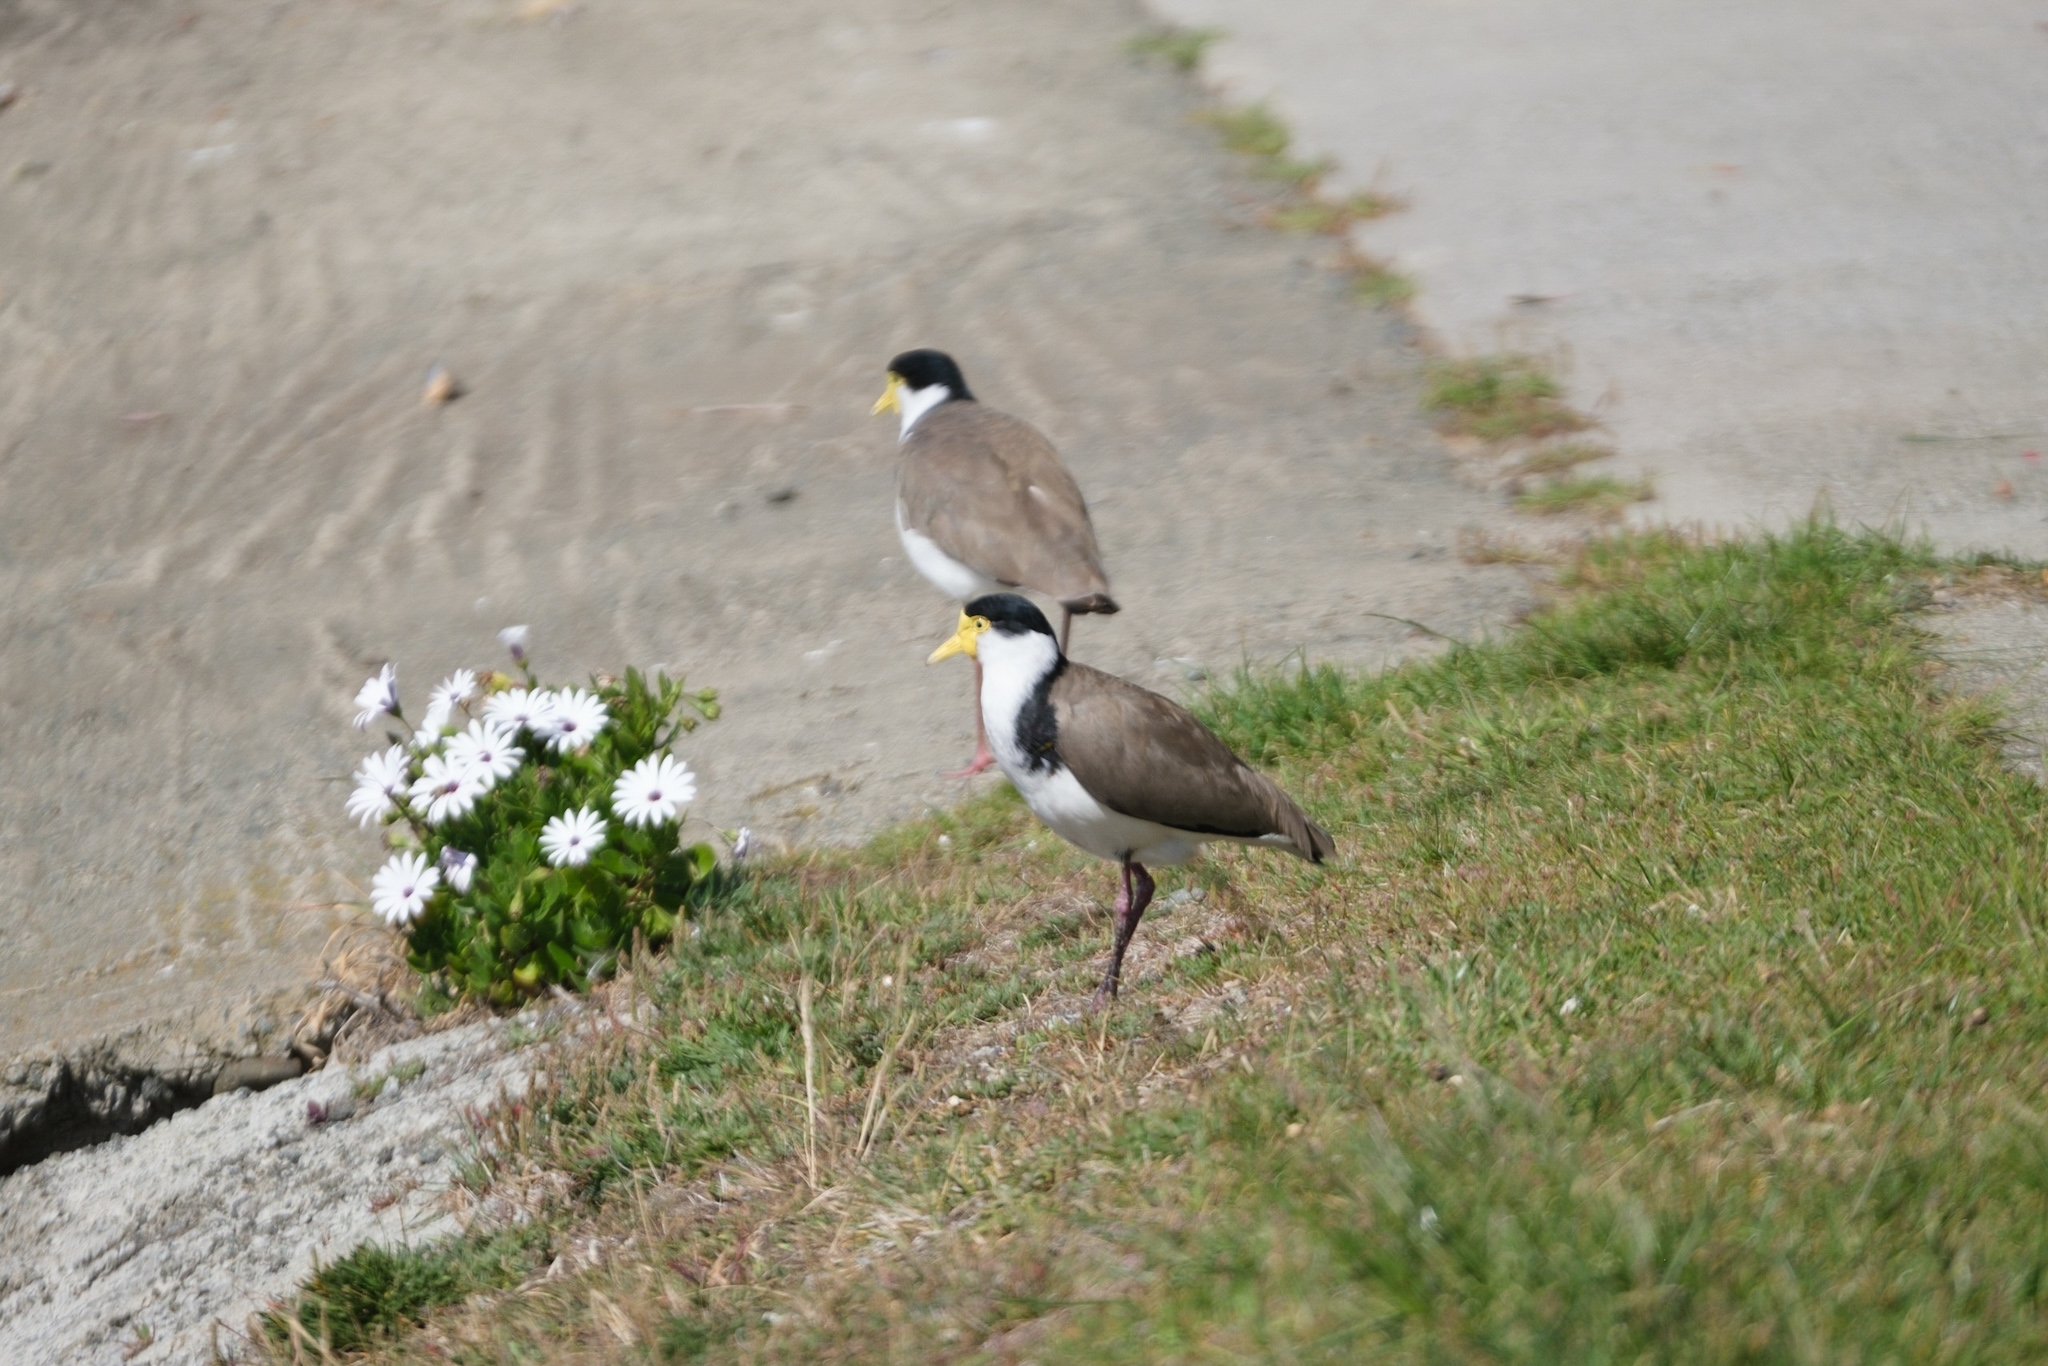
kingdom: Animalia
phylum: Chordata
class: Aves
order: Charadriiformes
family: Charadriidae
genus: Vanellus
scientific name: Vanellus miles
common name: Masked lapwing
